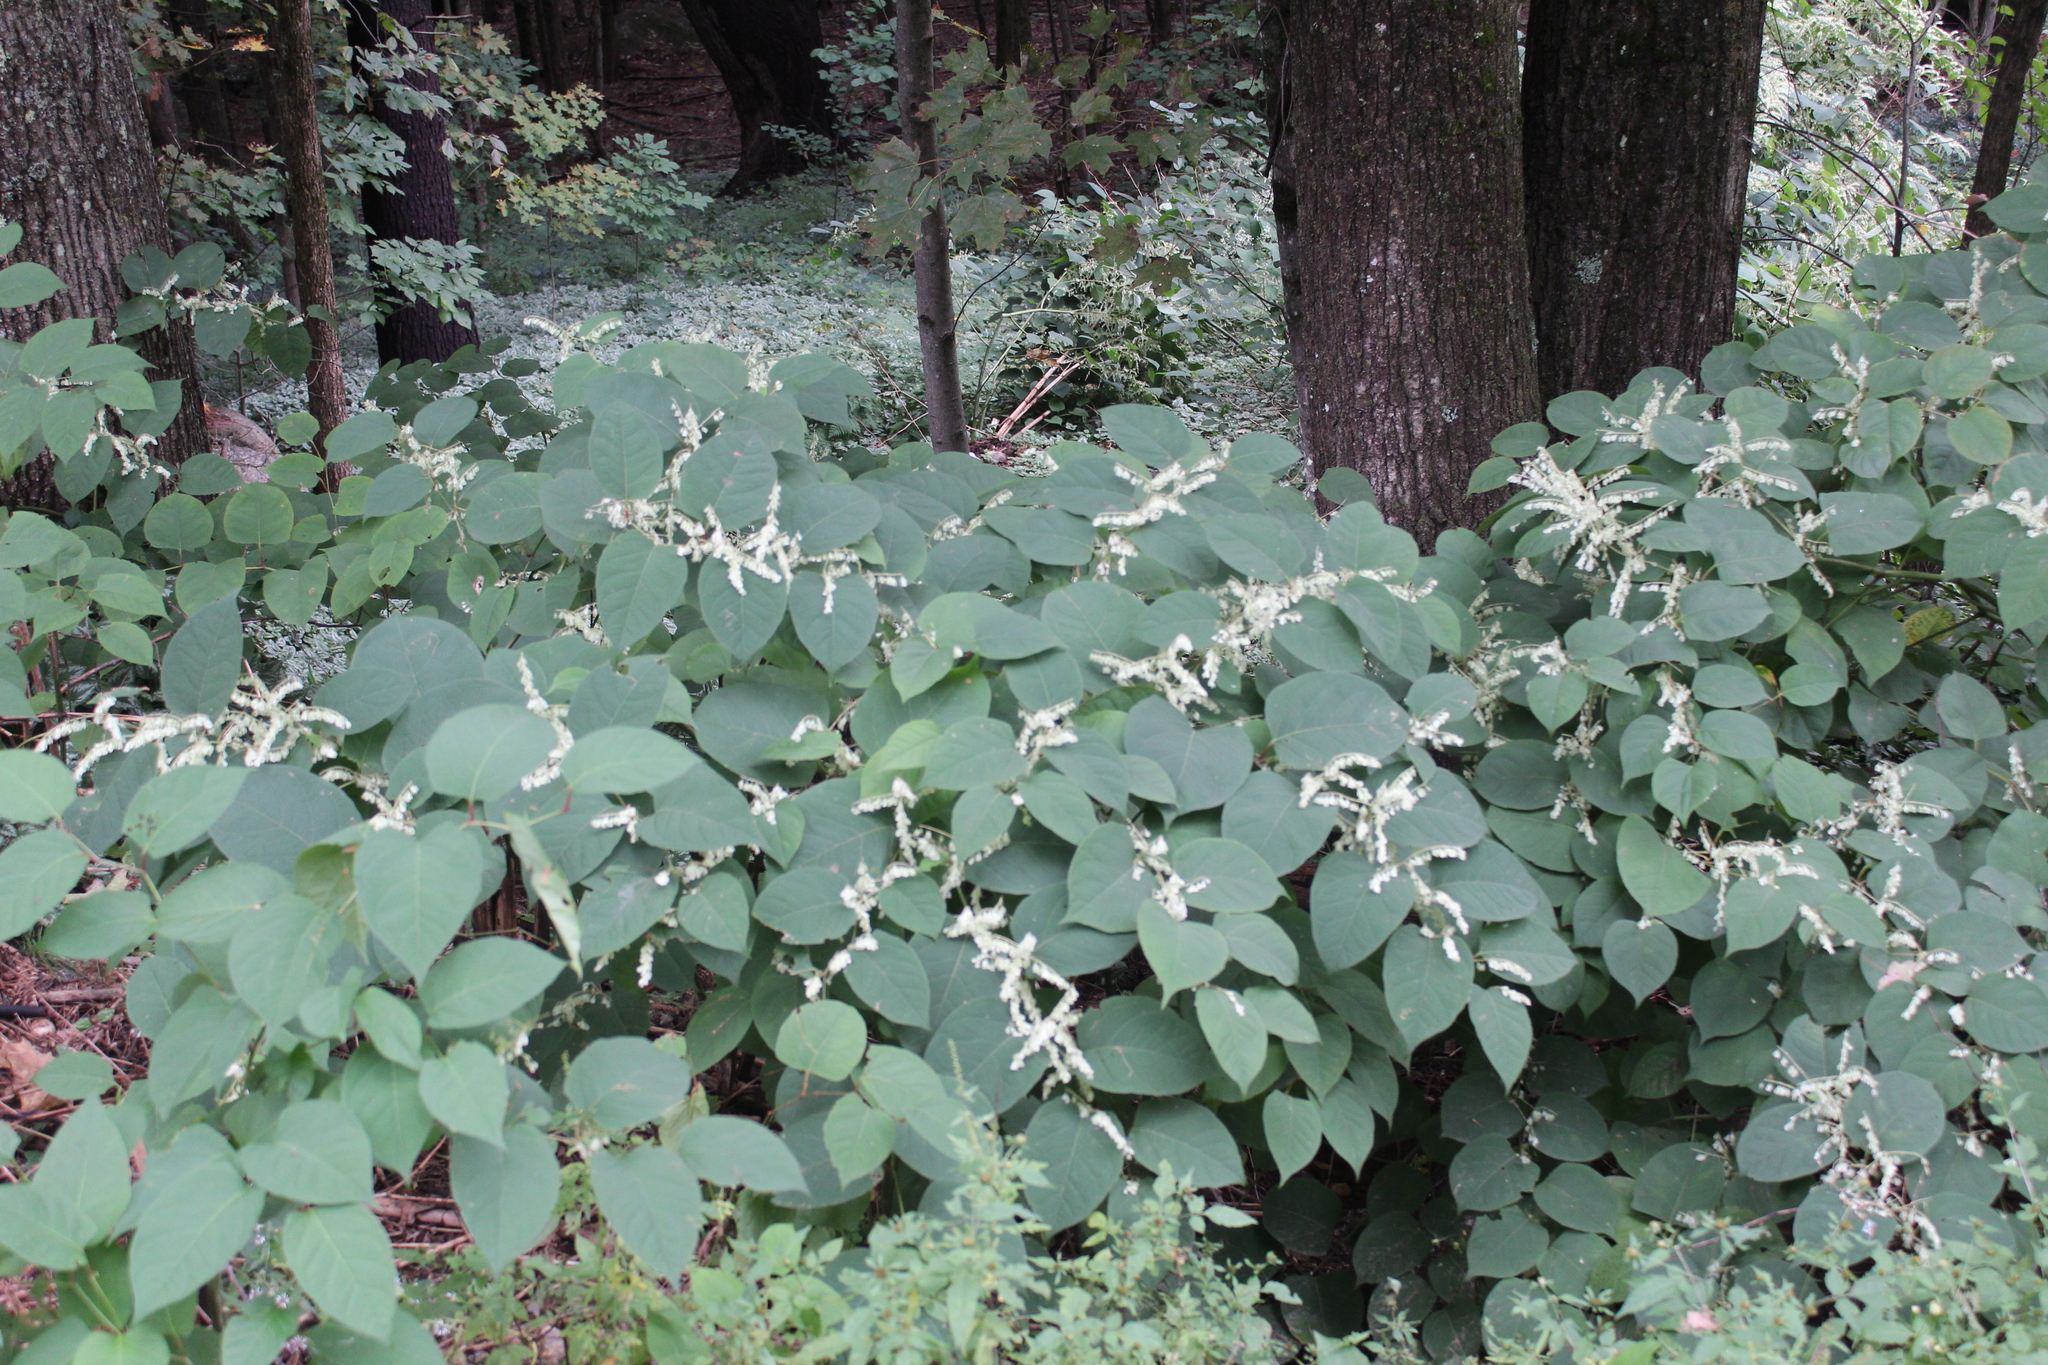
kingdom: Plantae
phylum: Tracheophyta
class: Magnoliopsida
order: Caryophyllales
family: Polygonaceae
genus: Reynoutria
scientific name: Reynoutria japonica
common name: Japanese knotweed
